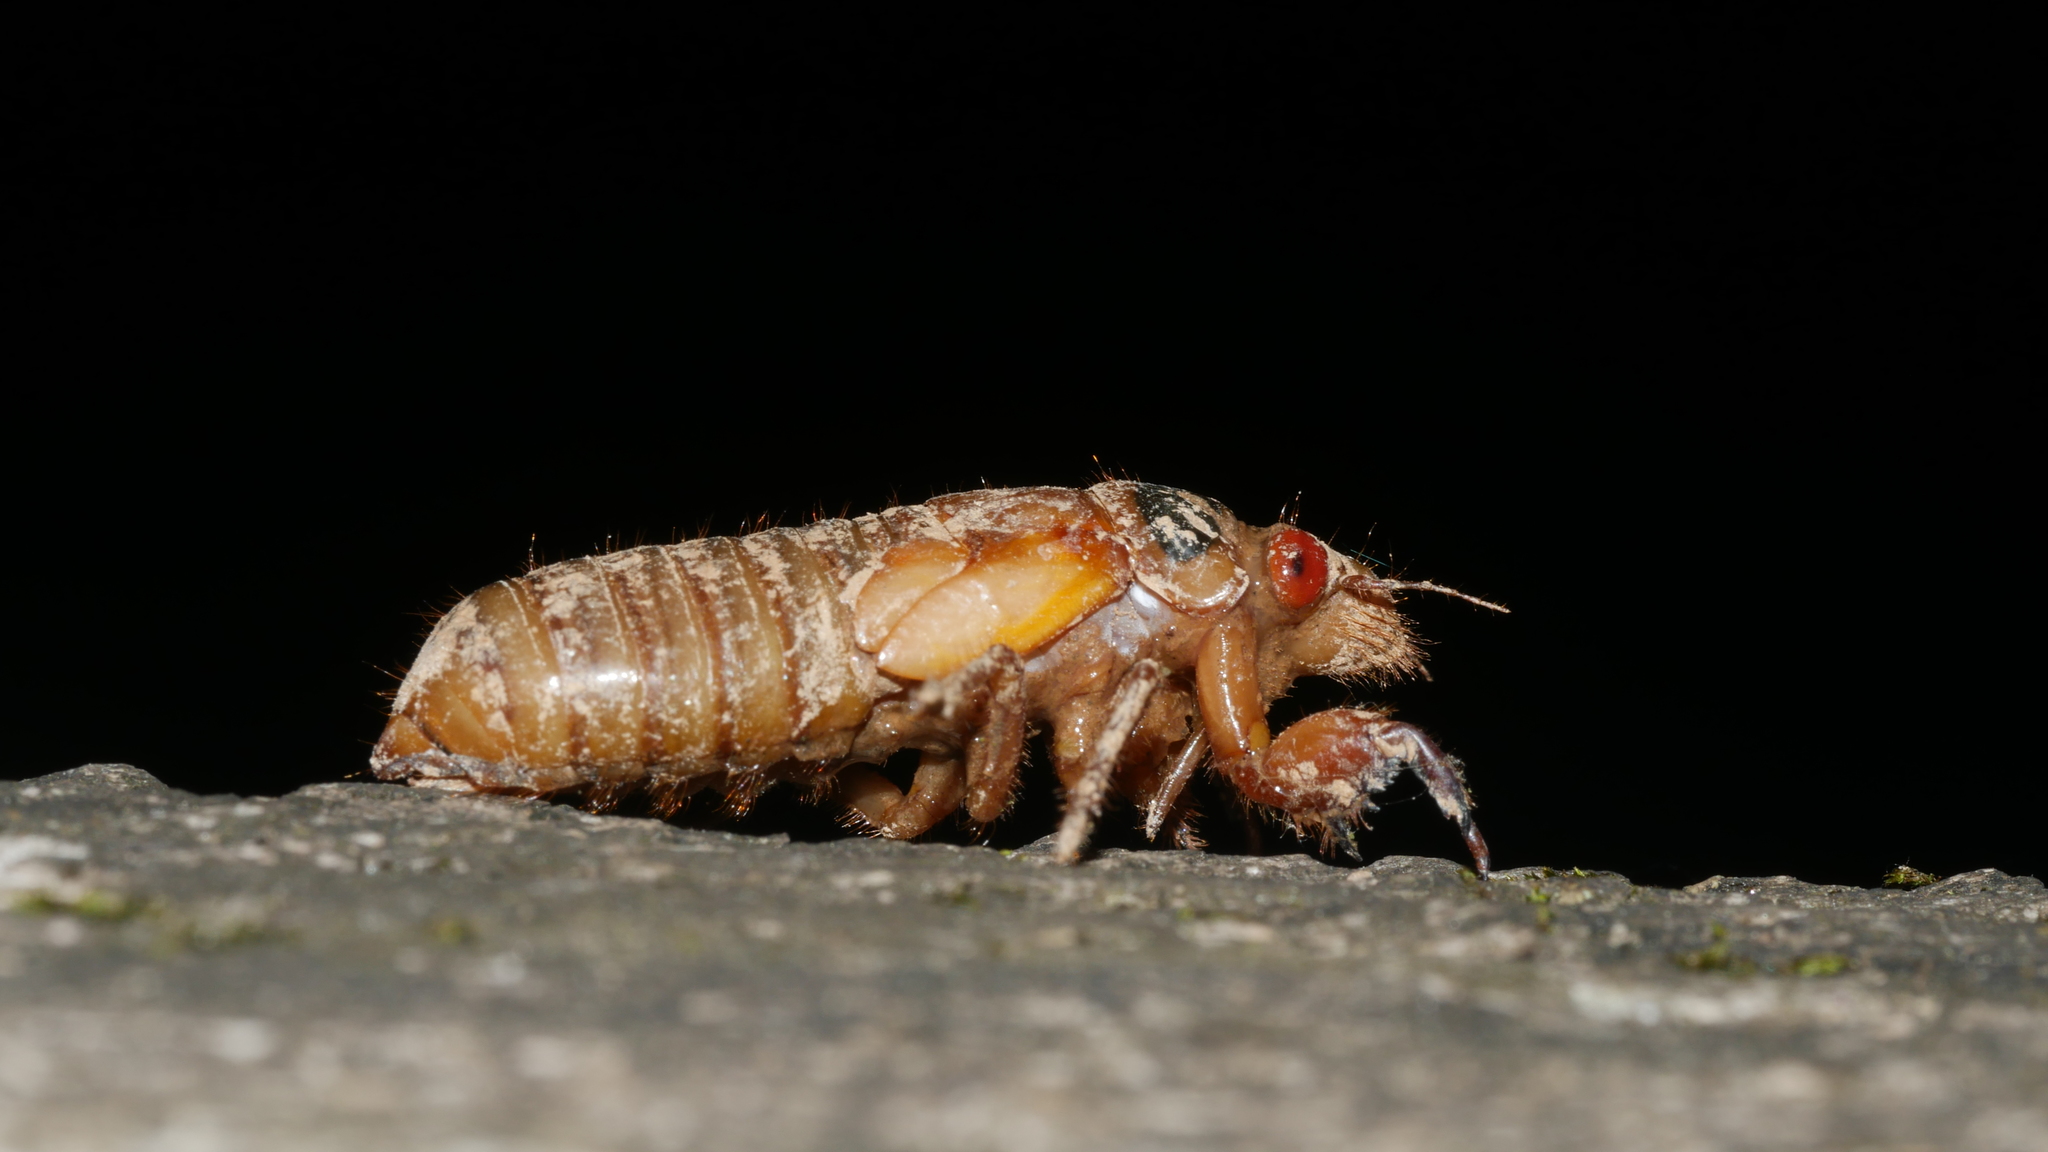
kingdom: Animalia
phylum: Arthropoda
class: Insecta
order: Hemiptera
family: Cicadidae
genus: Magicicada
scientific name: Magicicada
